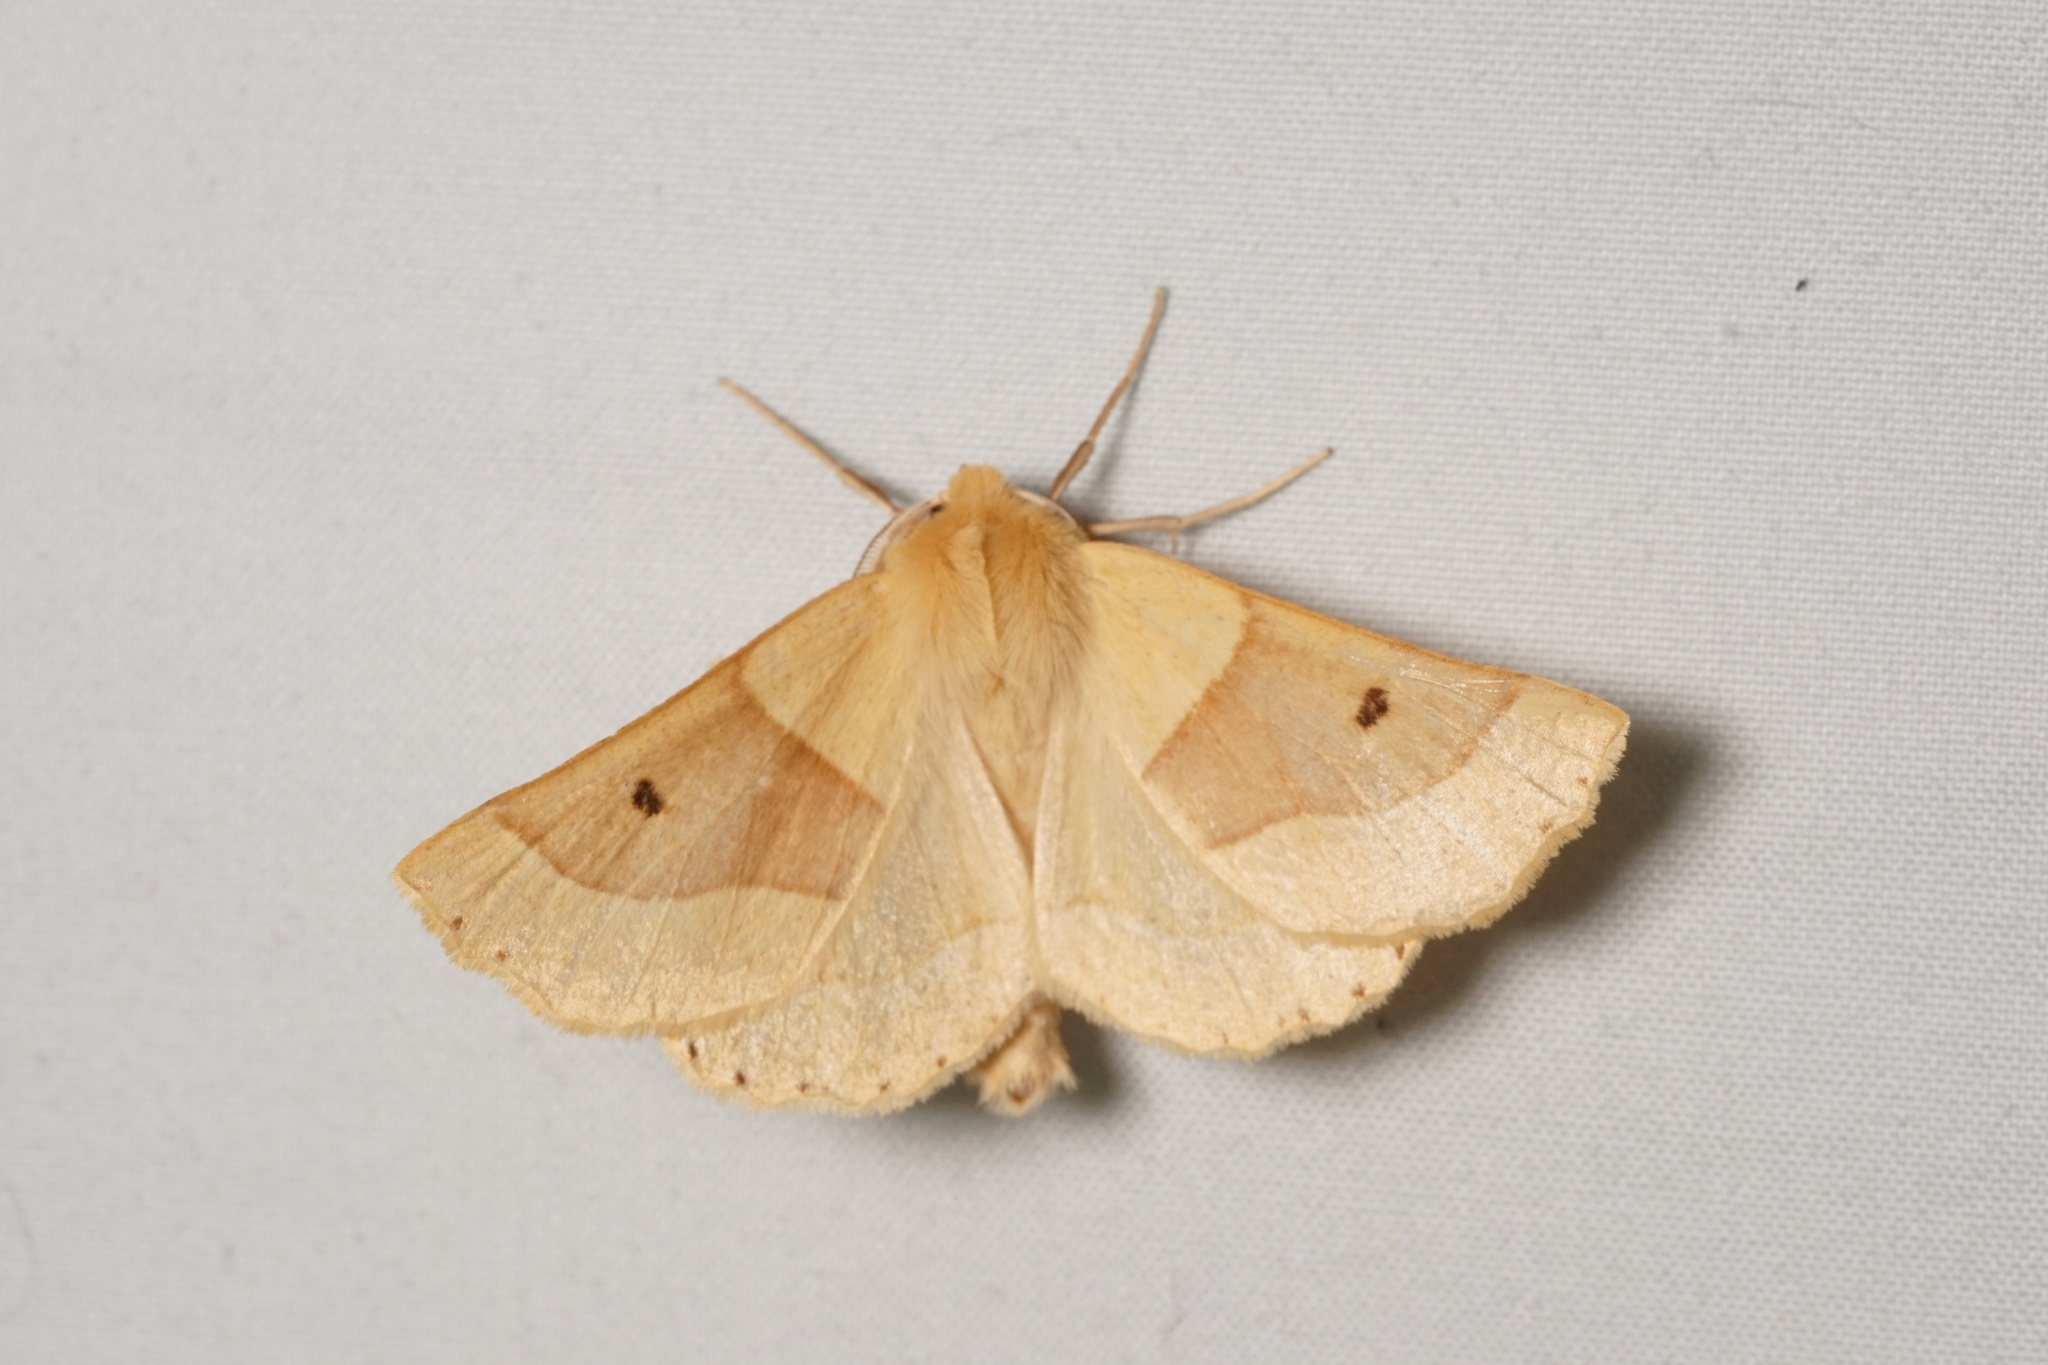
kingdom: Animalia
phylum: Arthropoda
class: Insecta
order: Lepidoptera
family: Geometridae
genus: Crocallis
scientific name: Crocallis elinguaria
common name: Scalloped oak
